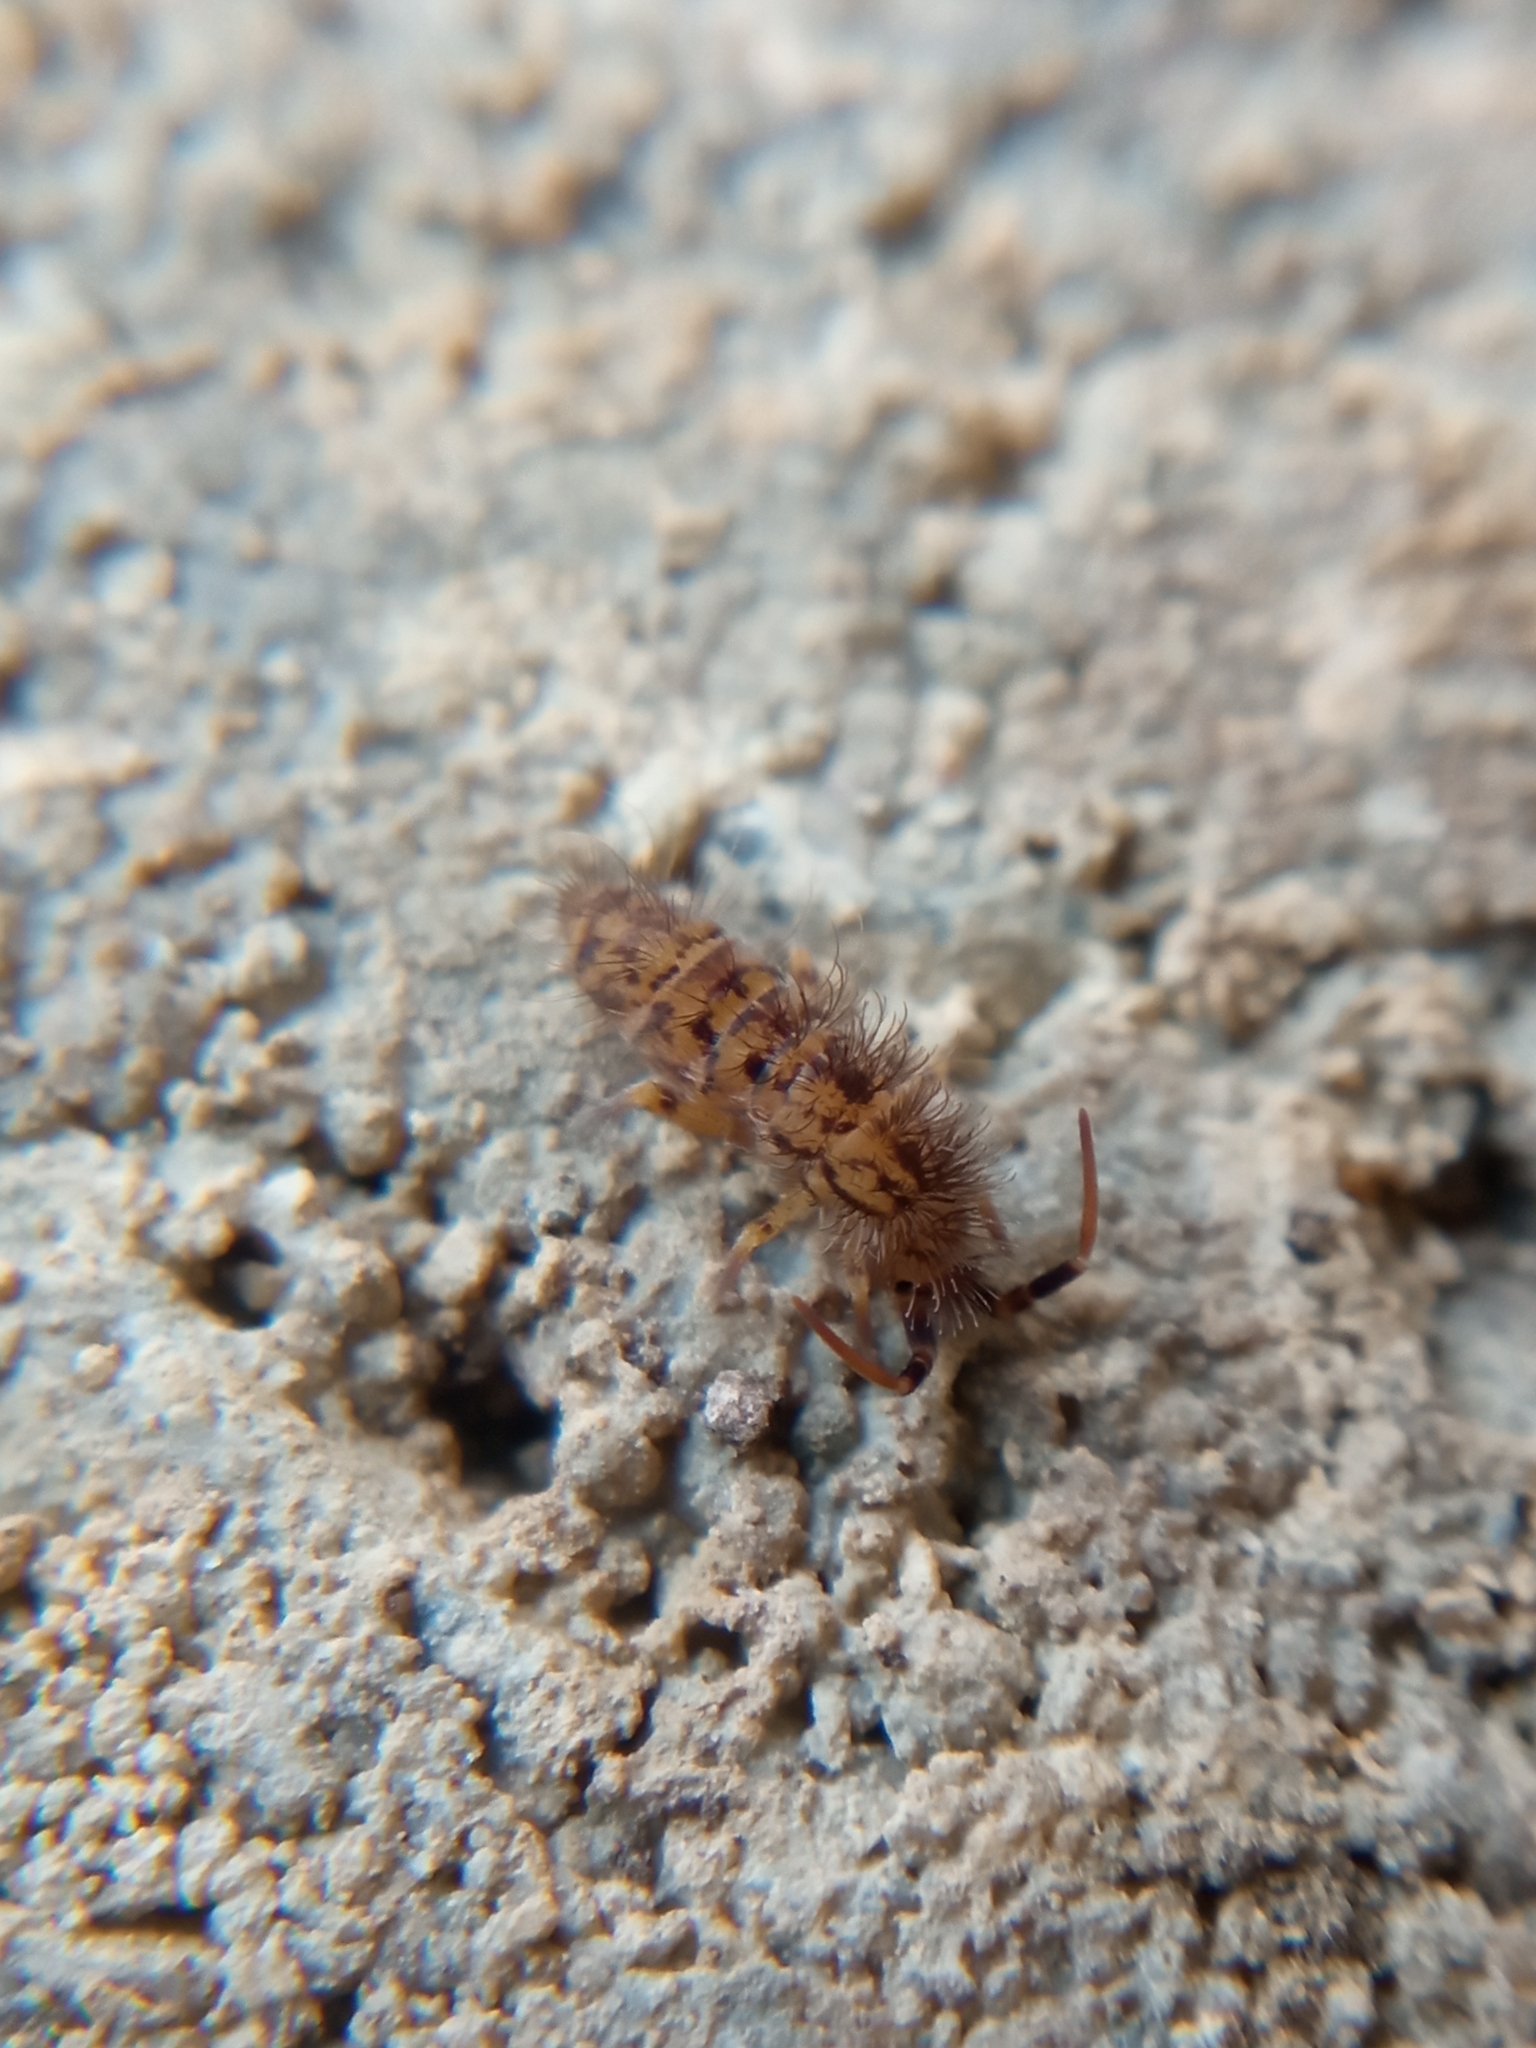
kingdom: Animalia
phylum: Arthropoda
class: Collembola
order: Entomobryomorpha
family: Orchesellidae
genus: Orchesella
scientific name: Orchesella villosa
